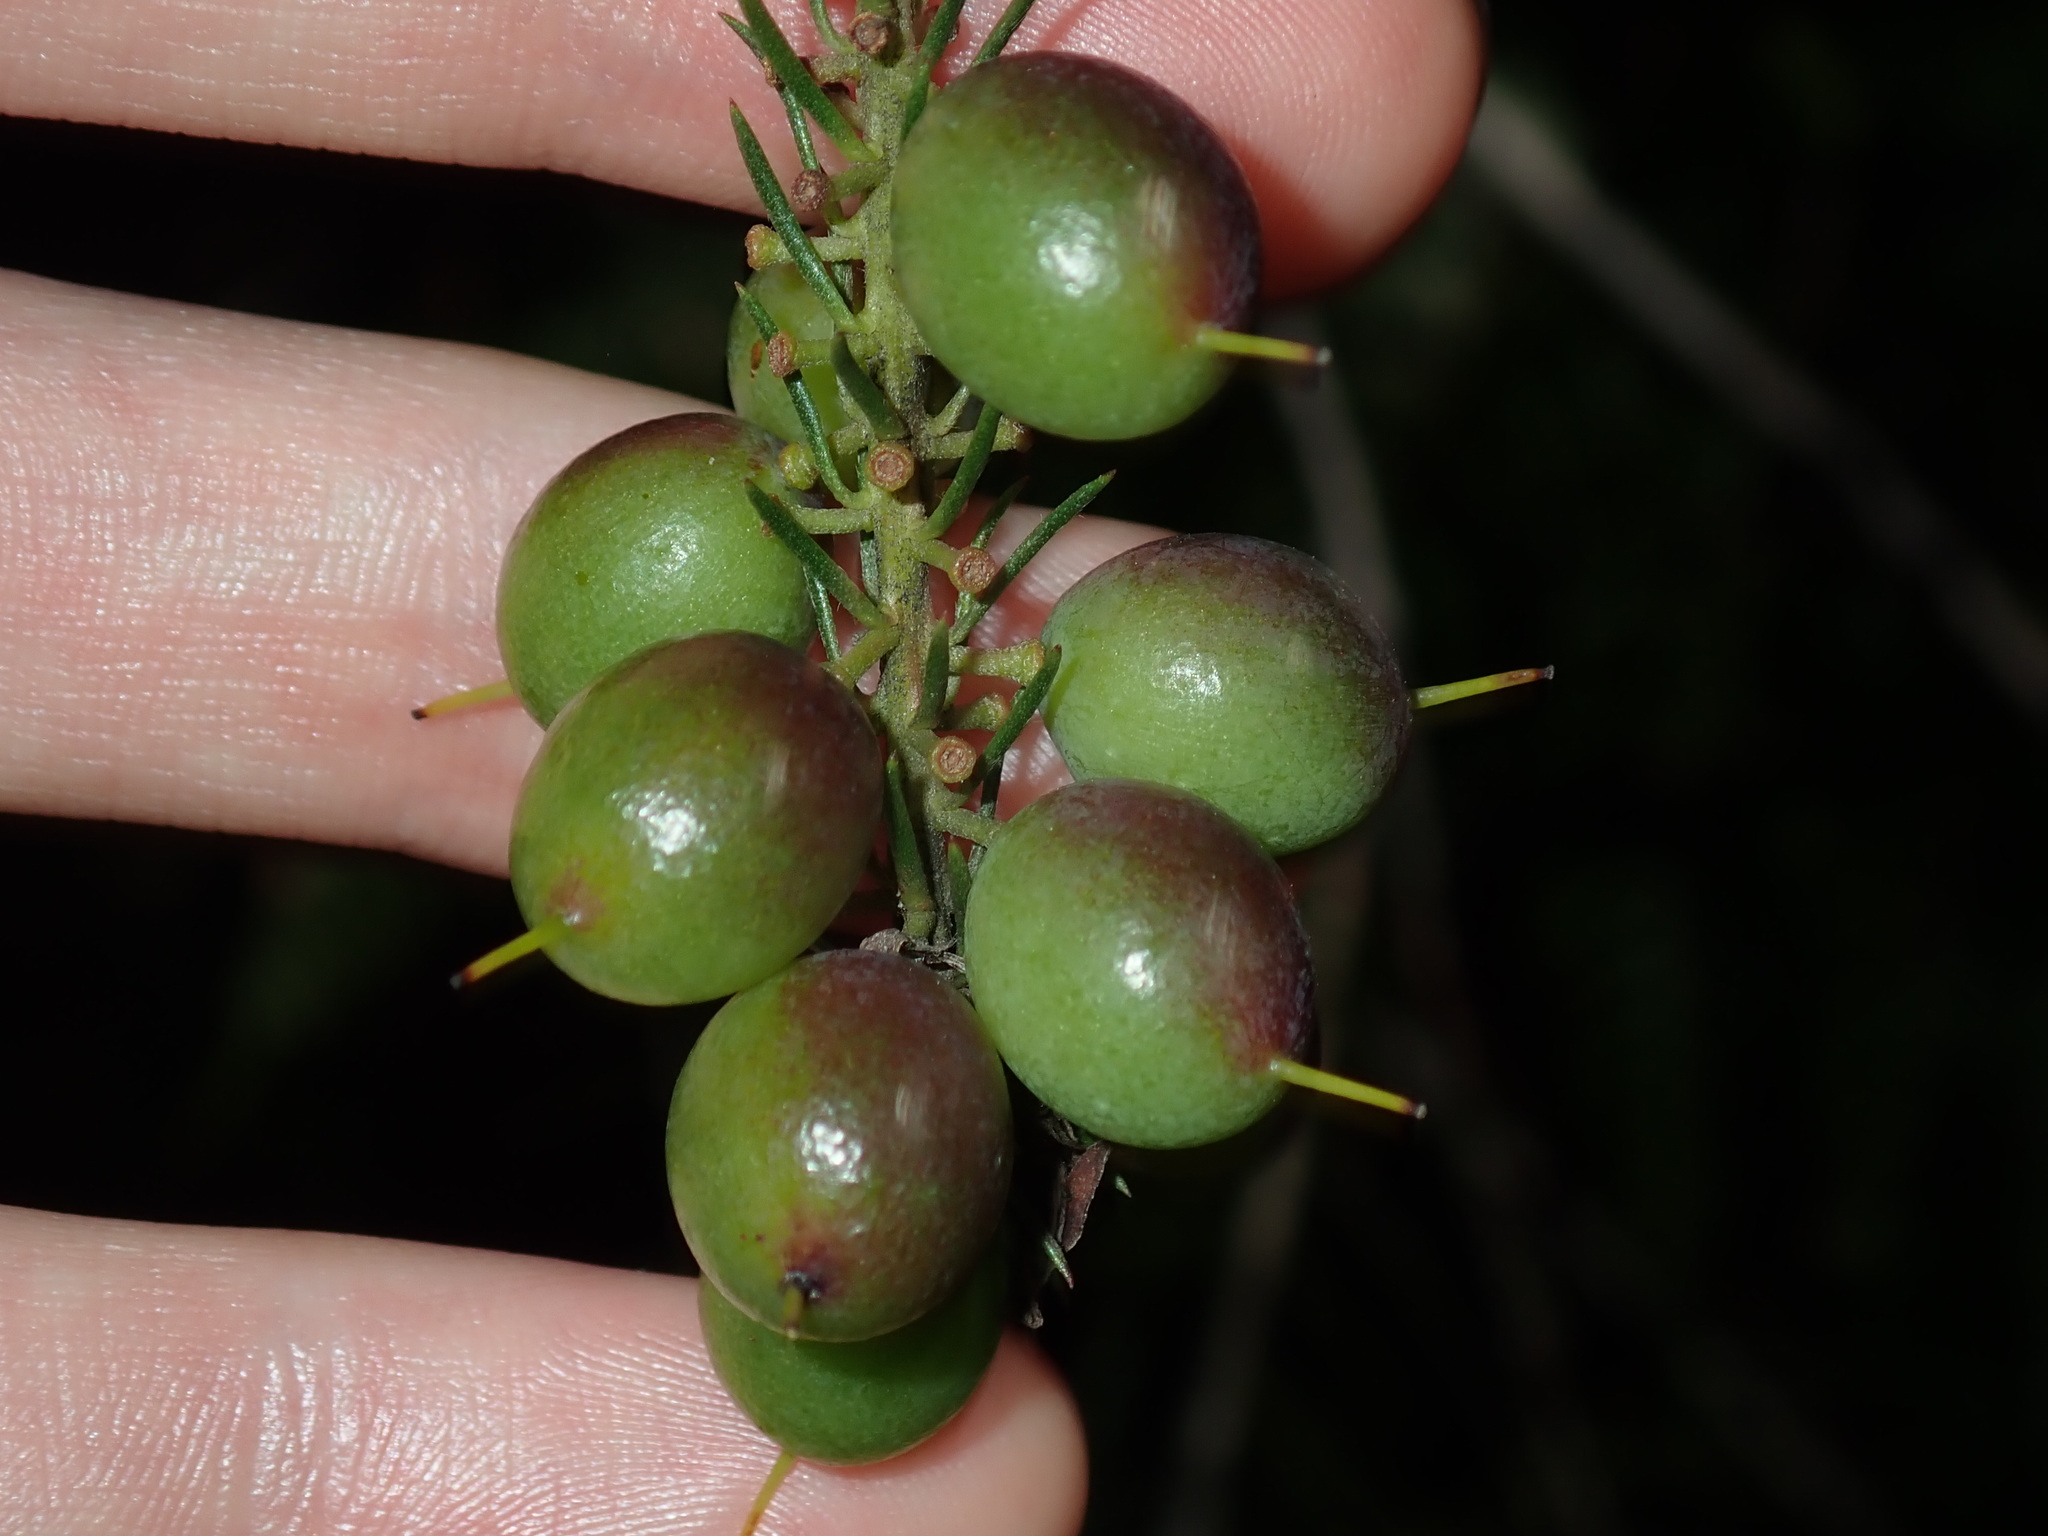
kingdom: Plantae
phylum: Tracheophyta
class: Magnoliopsida
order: Proteales
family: Proteaceae
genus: Persoonia
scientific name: Persoonia pinifolia
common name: Pine-leaf geebung
